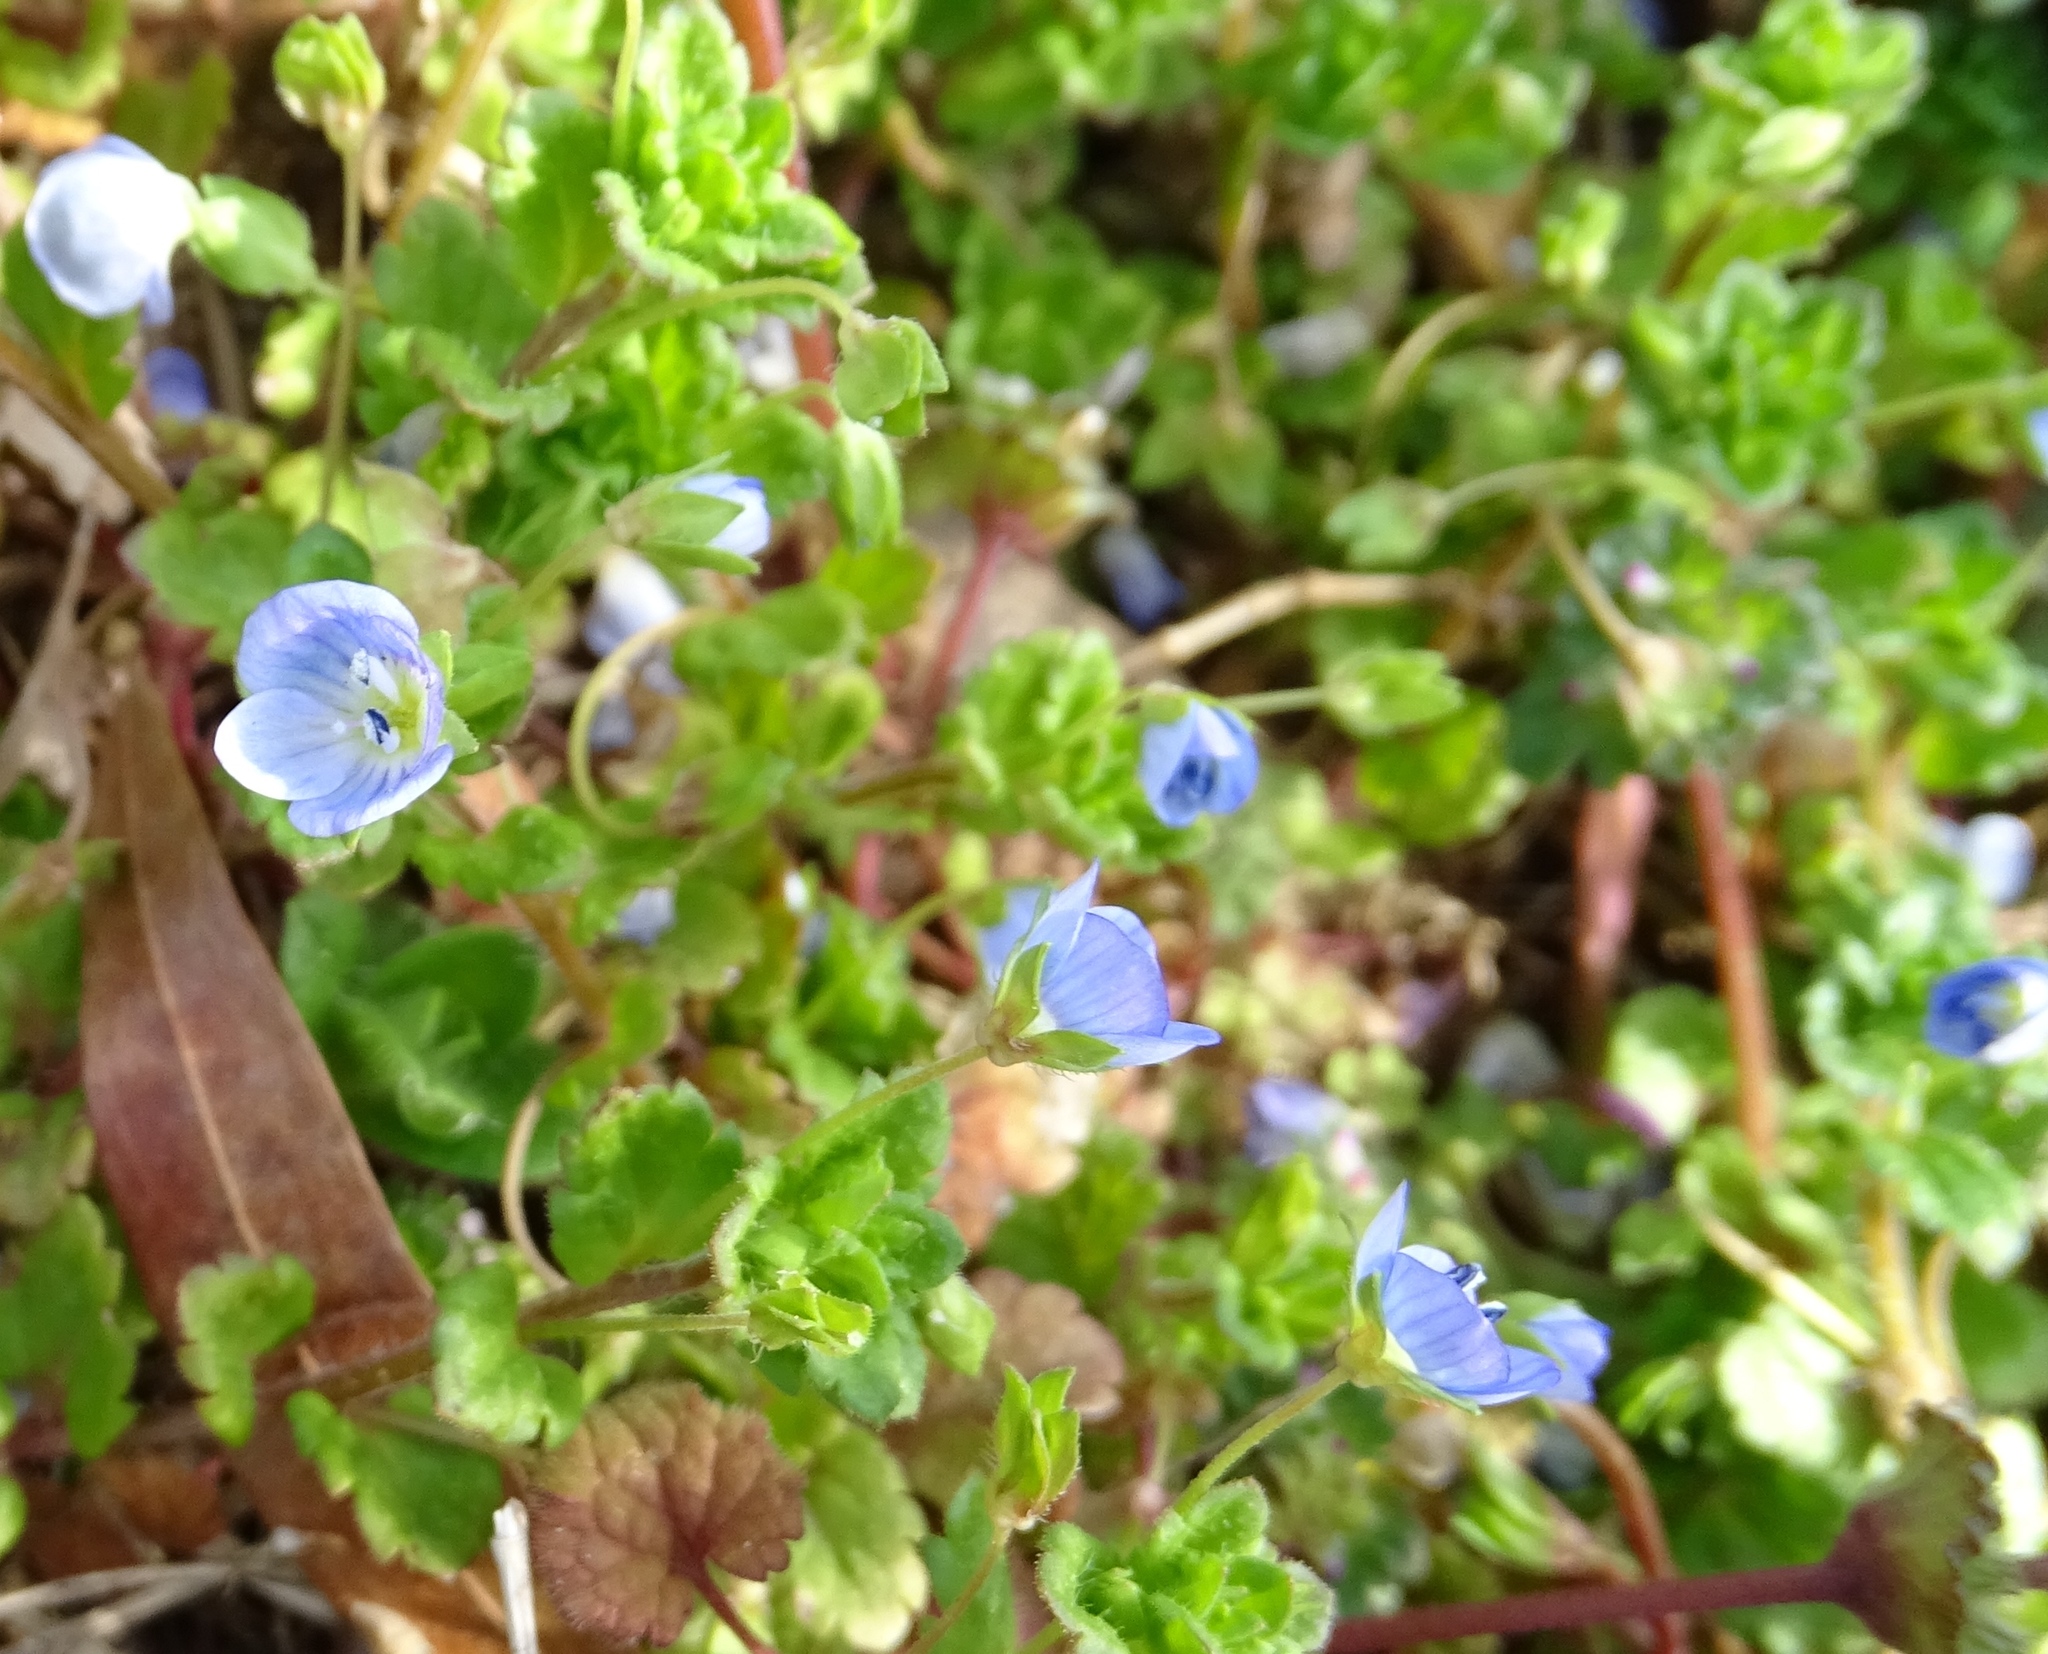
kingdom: Plantae
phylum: Tracheophyta
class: Magnoliopsida
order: Lamiales
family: Plantaginaceae
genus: Veronica
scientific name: Veronica persica
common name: Common field-speedwell
